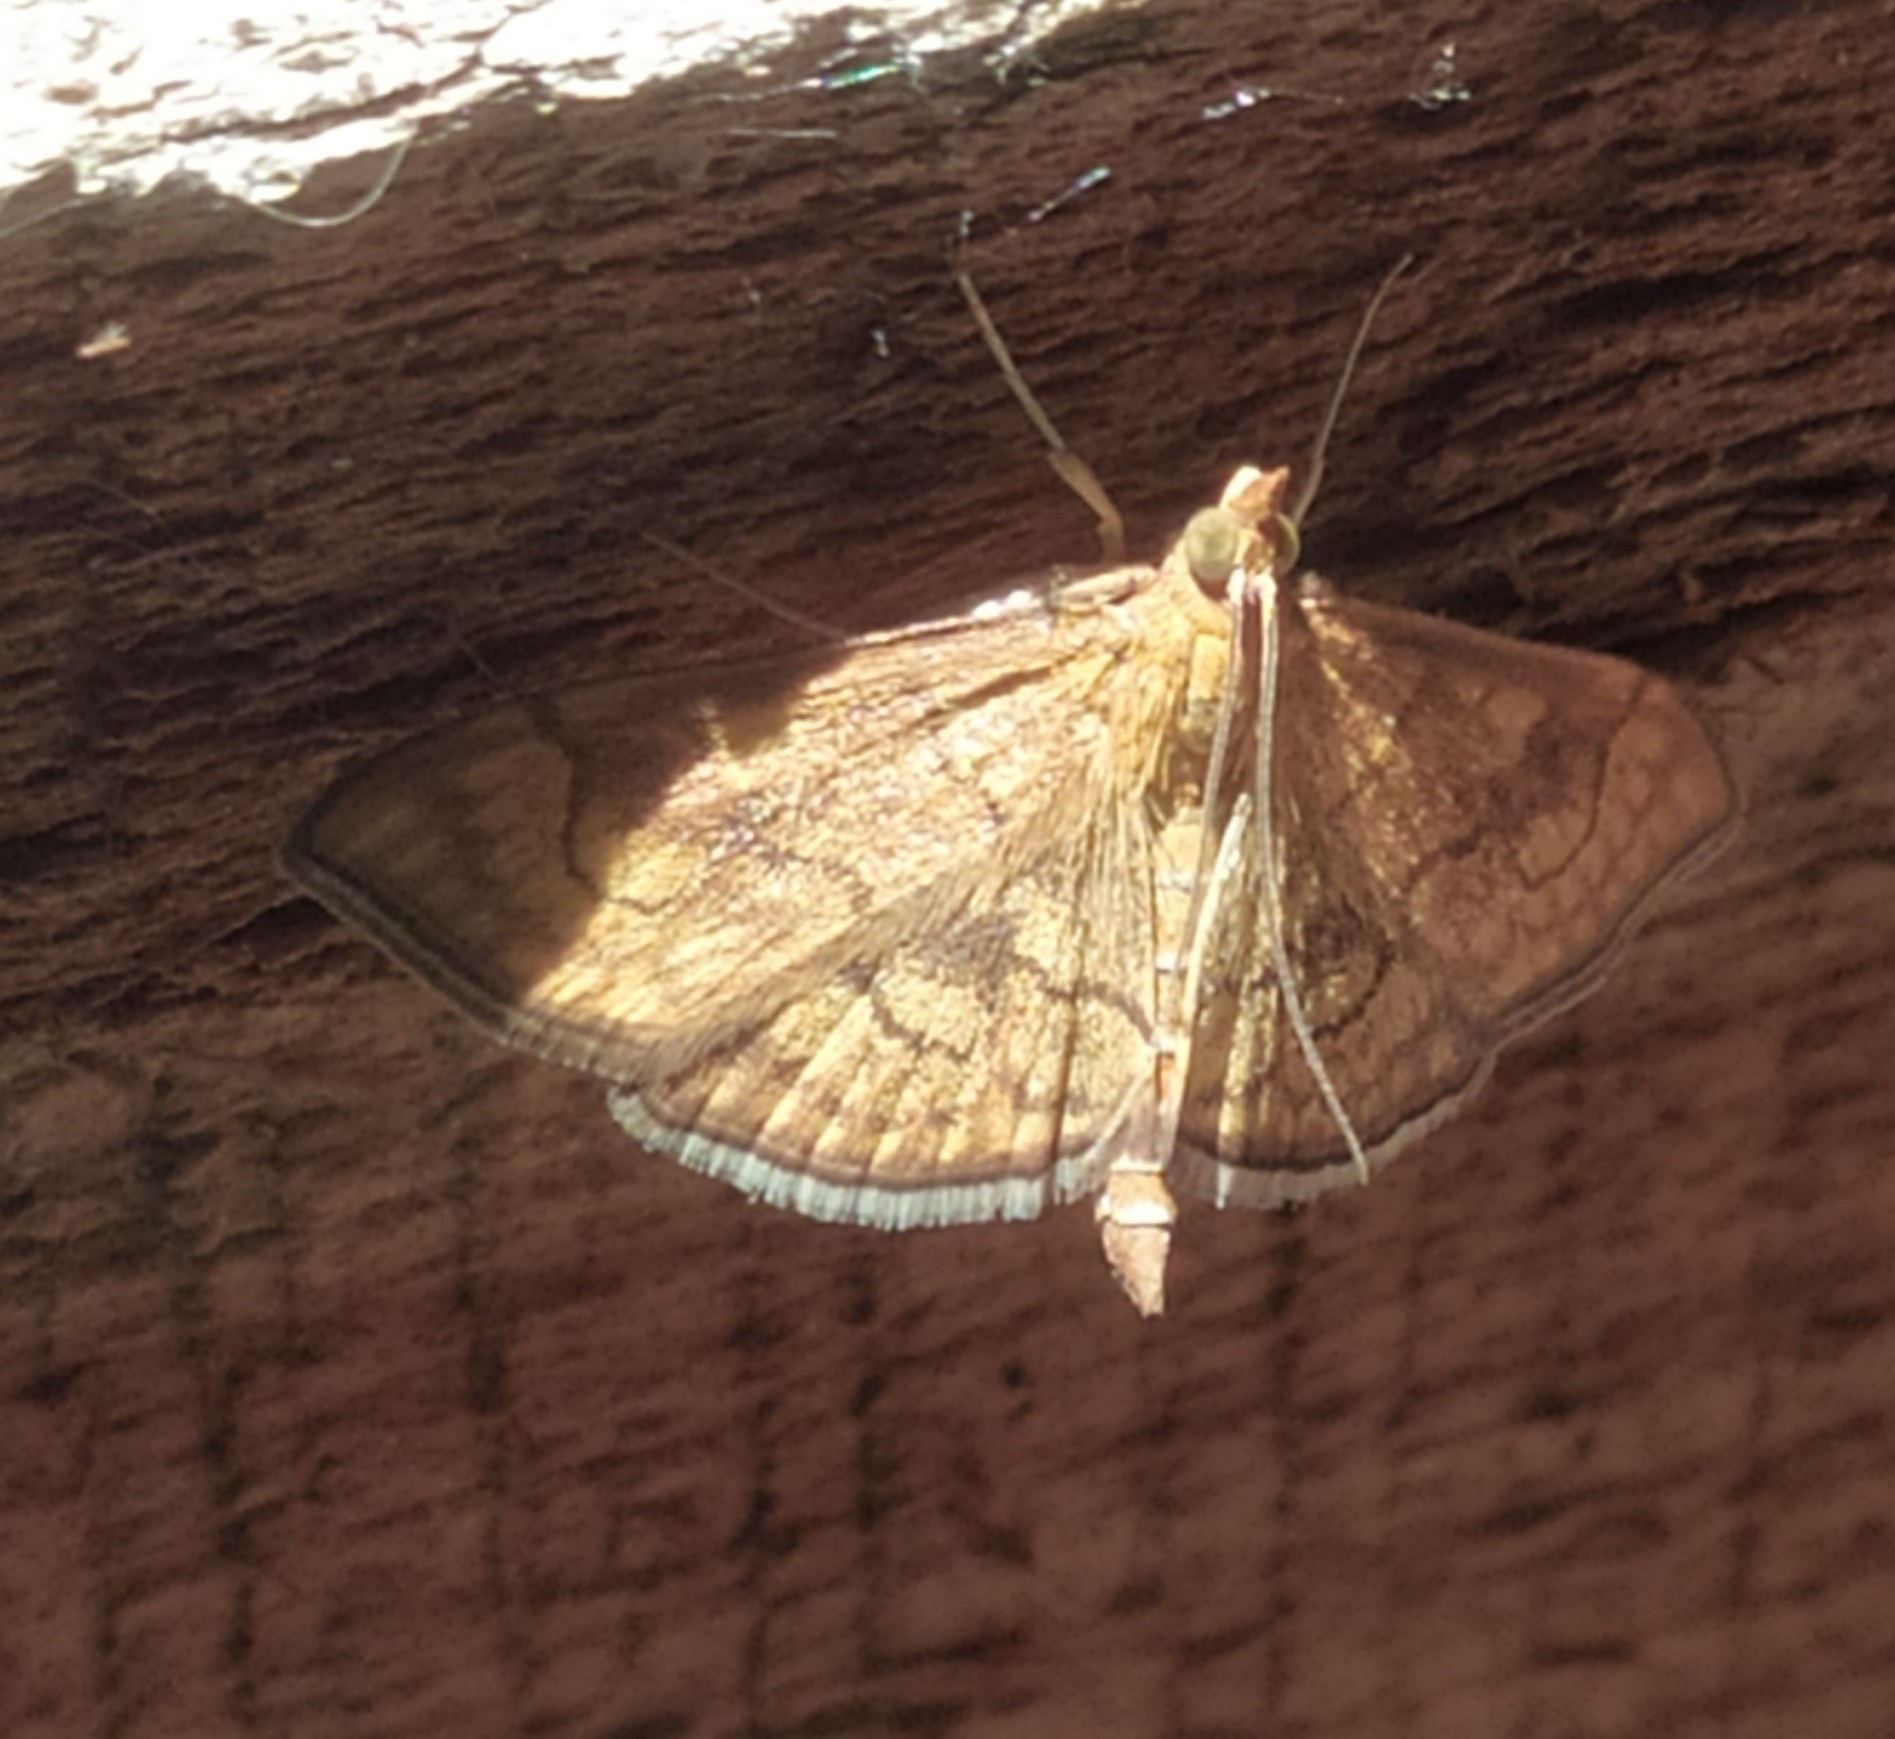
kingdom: Animalia
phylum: Arthropoda
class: Insecta
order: Lepidoptera
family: Crambidae
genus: Anania
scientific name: Anania verbascalis
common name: Golden pearl
